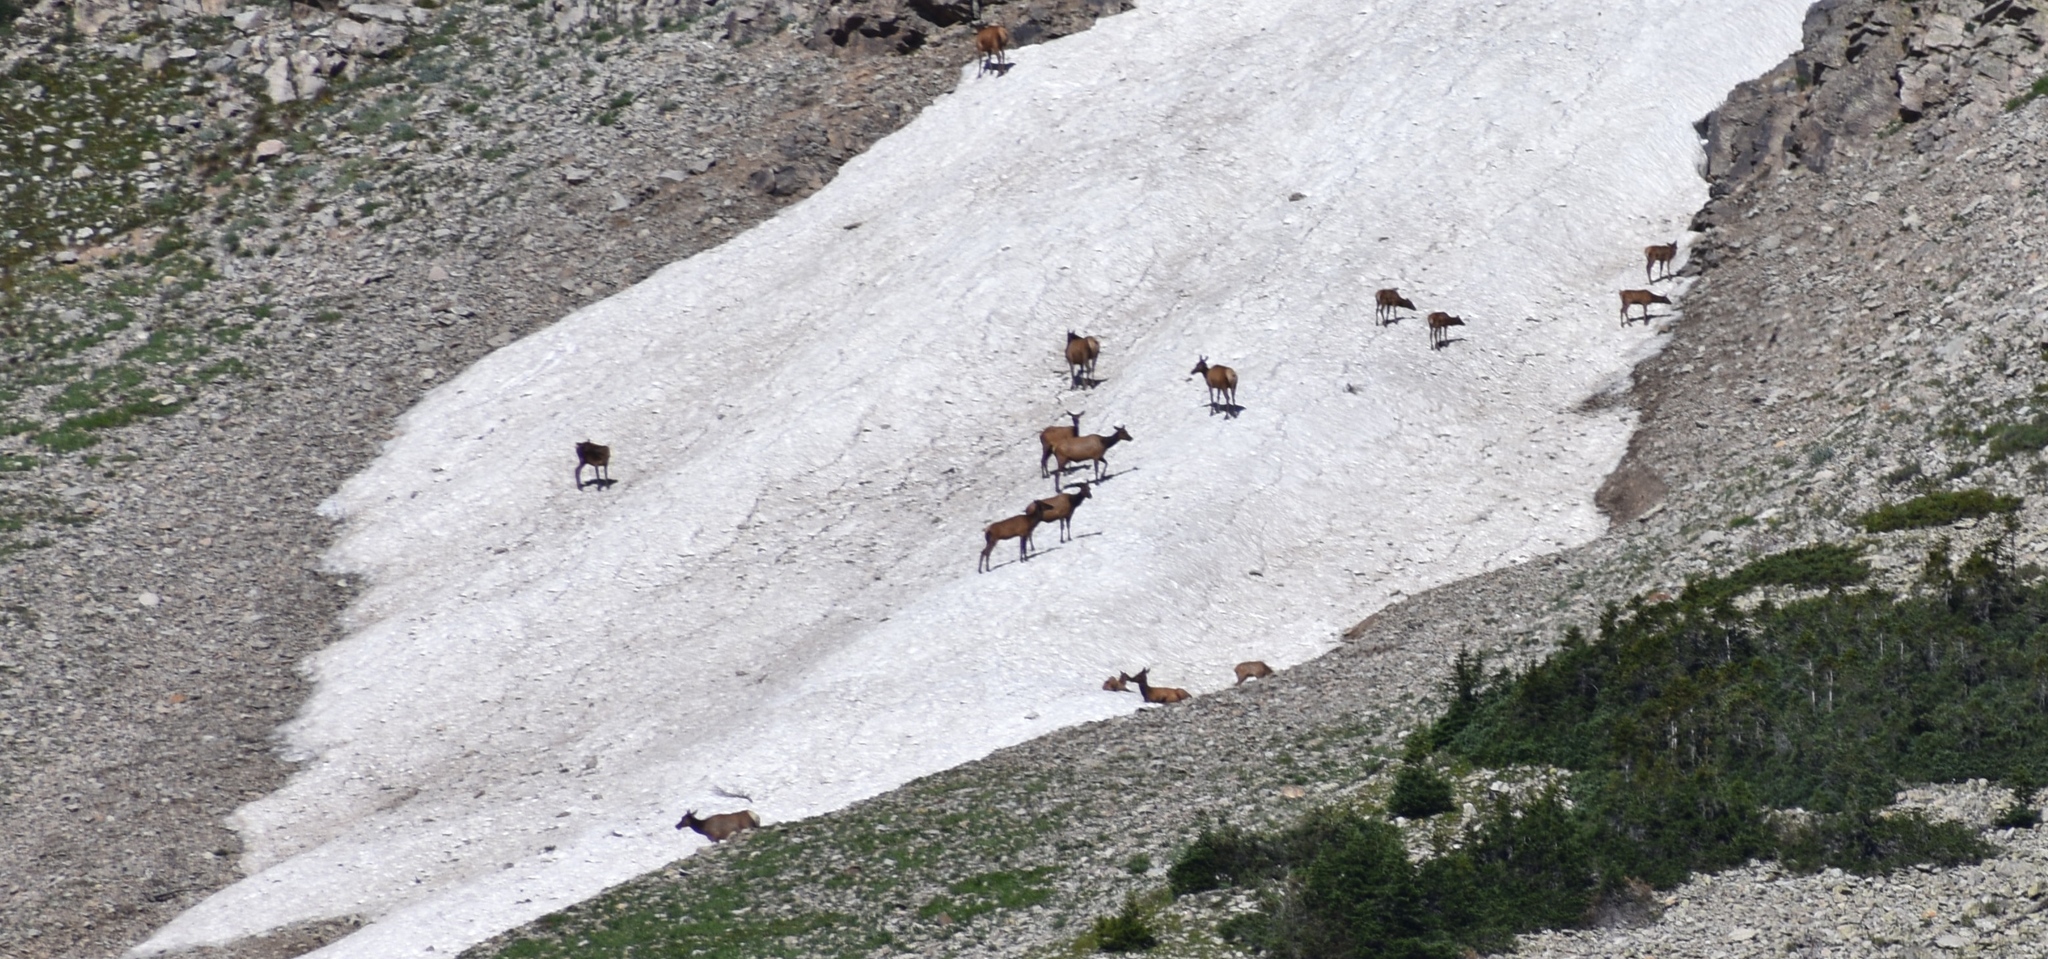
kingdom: Animalia
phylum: Chordata
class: Mammalia
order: Artiodactyla
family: Cervidae
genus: Cervus
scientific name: Cervus elaphus
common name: Red deer
